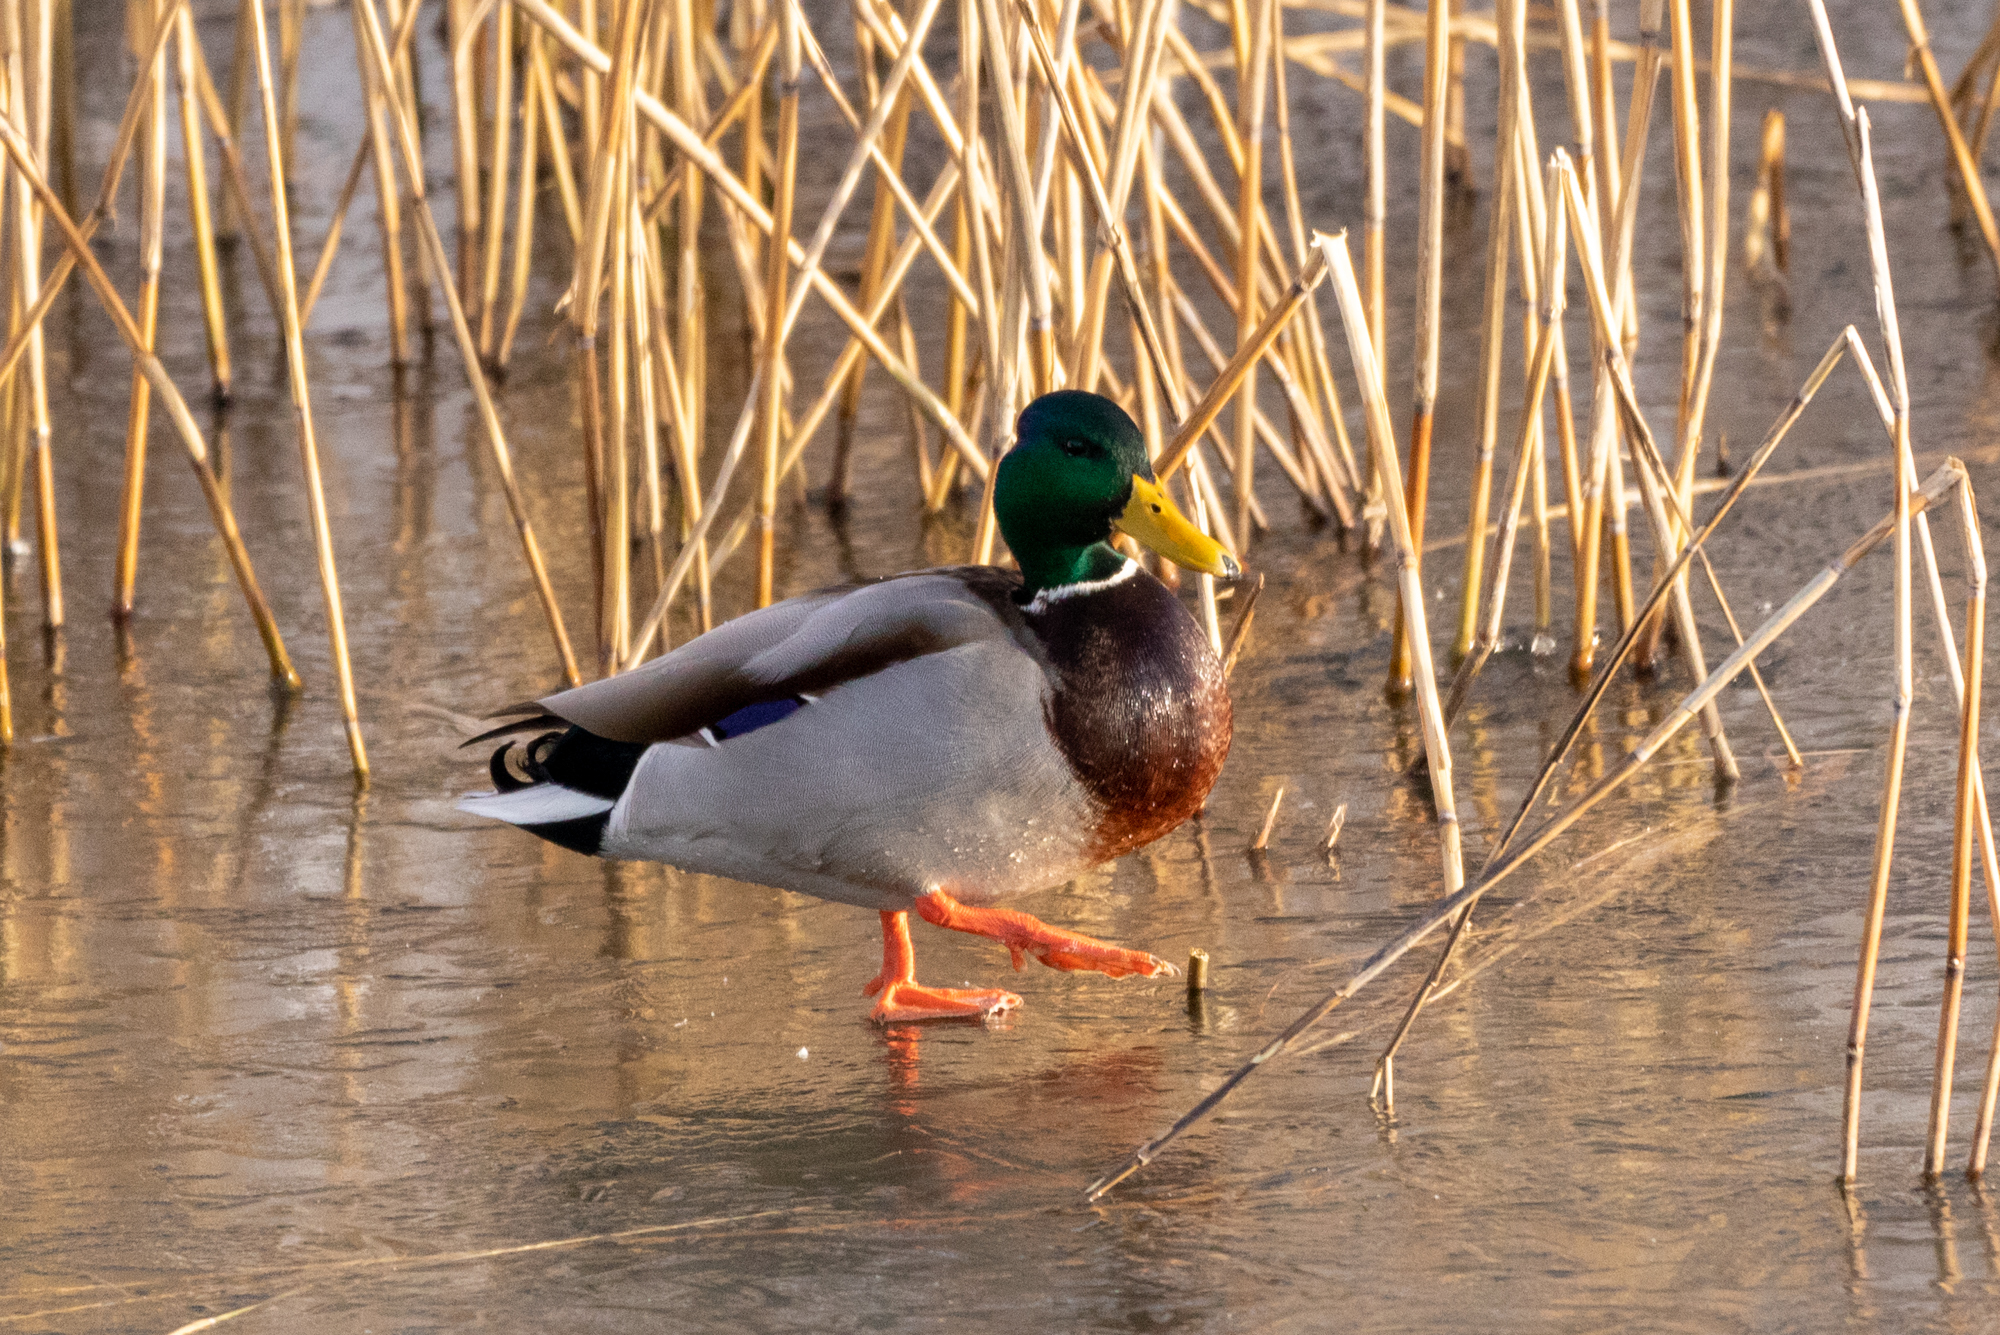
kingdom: Animalia
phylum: Chordata
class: Aves
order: Anseriformes
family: Anatidae
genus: Anas
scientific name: Anas platyrhynchos
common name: Mallard
